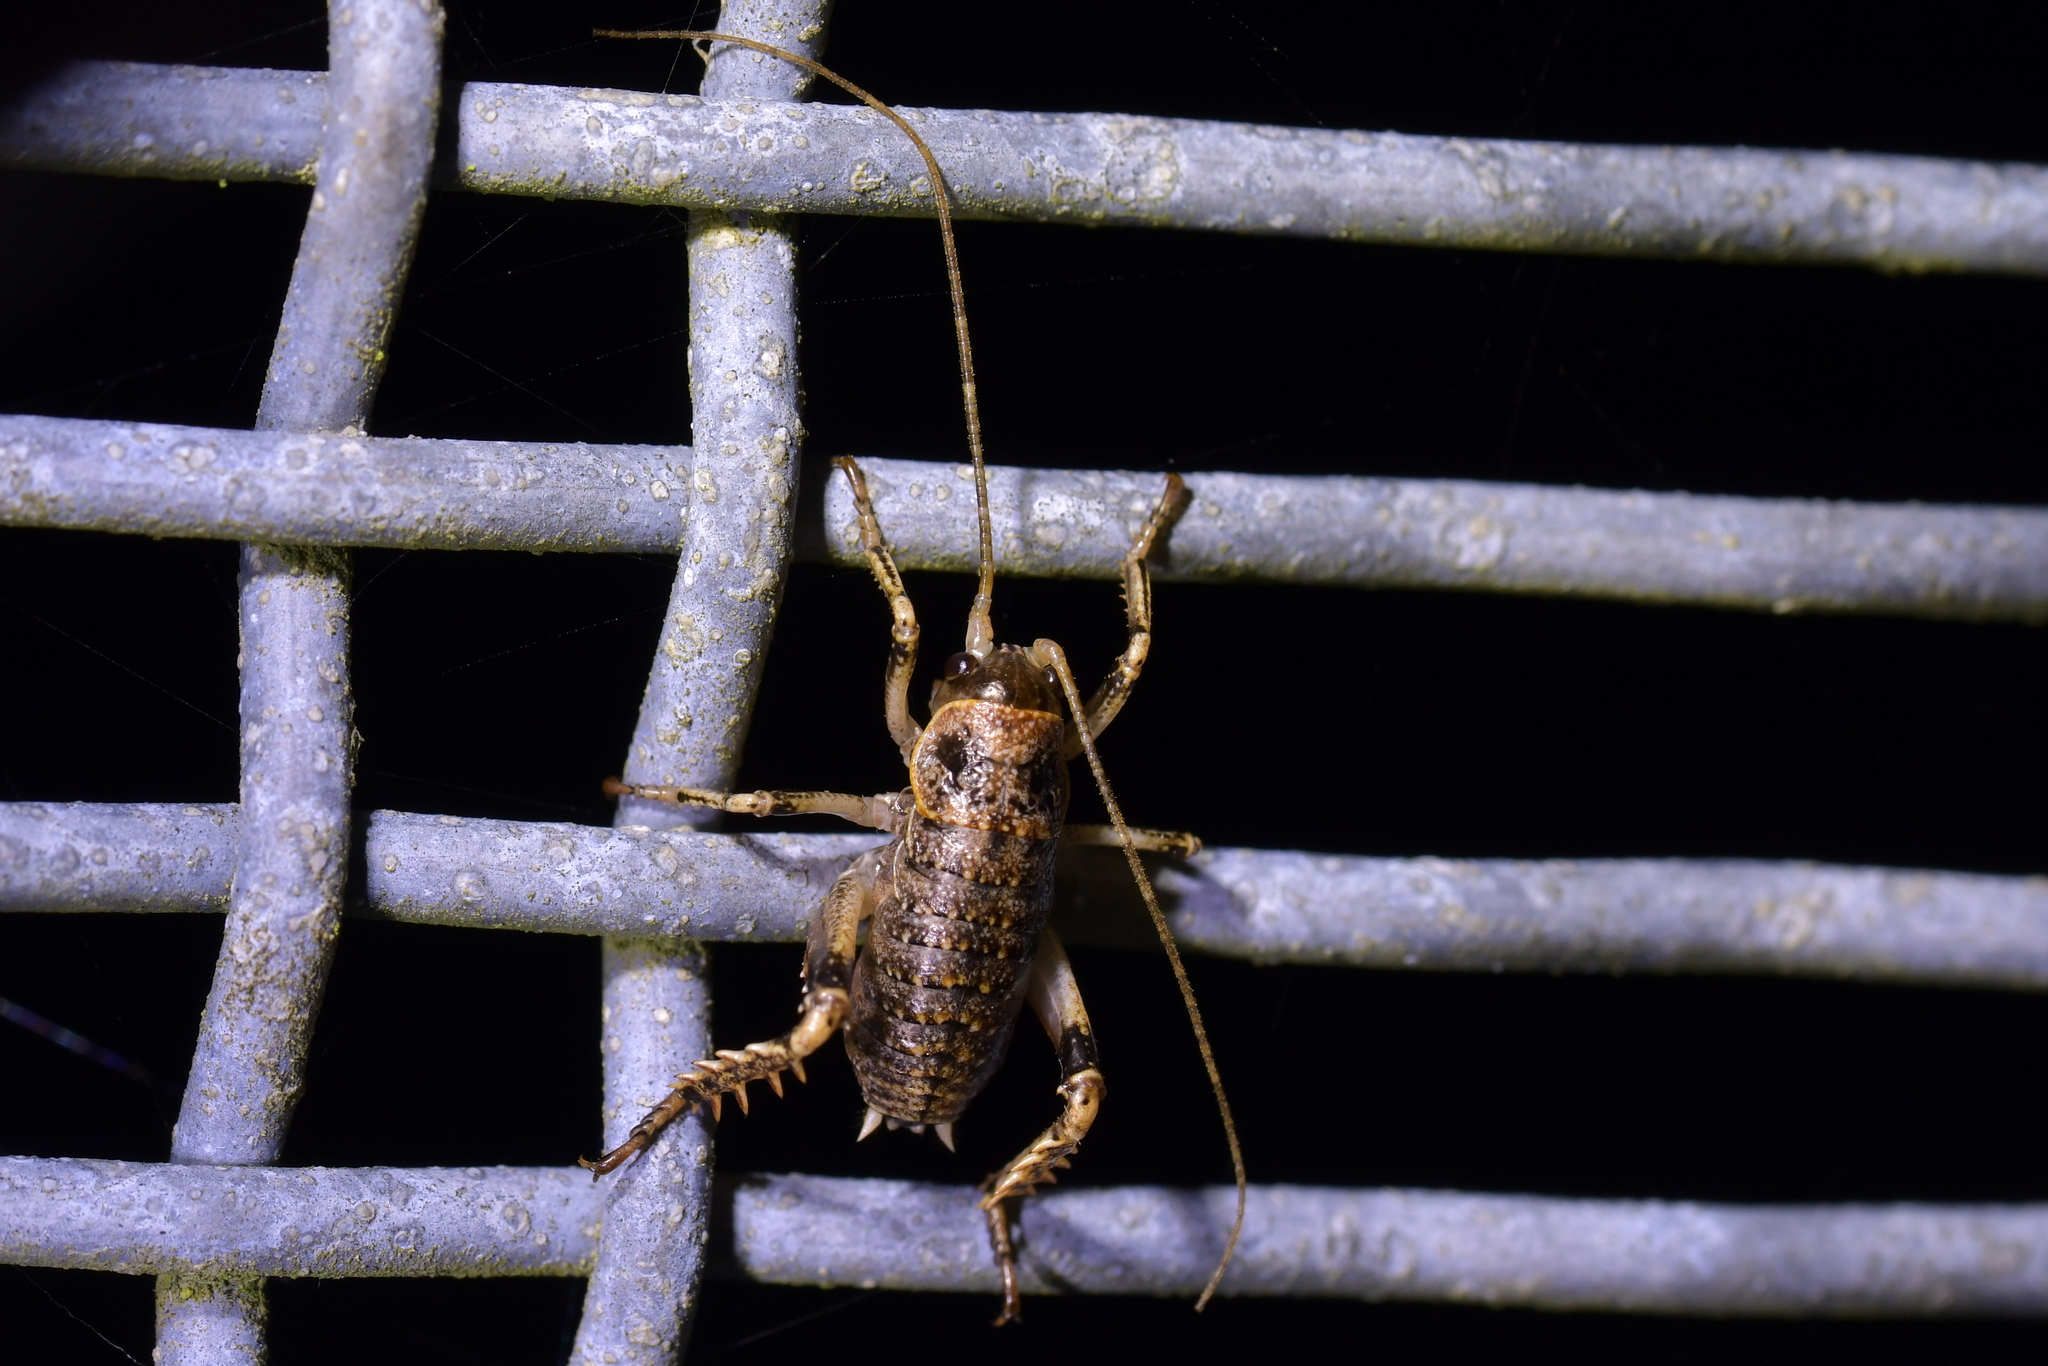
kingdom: Animalia
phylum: Arthropoda
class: Insecta
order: Orthoptera
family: Anostostomatidae
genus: Deinacrida
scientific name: Deinacrida rugosa
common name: Stephens island weta
